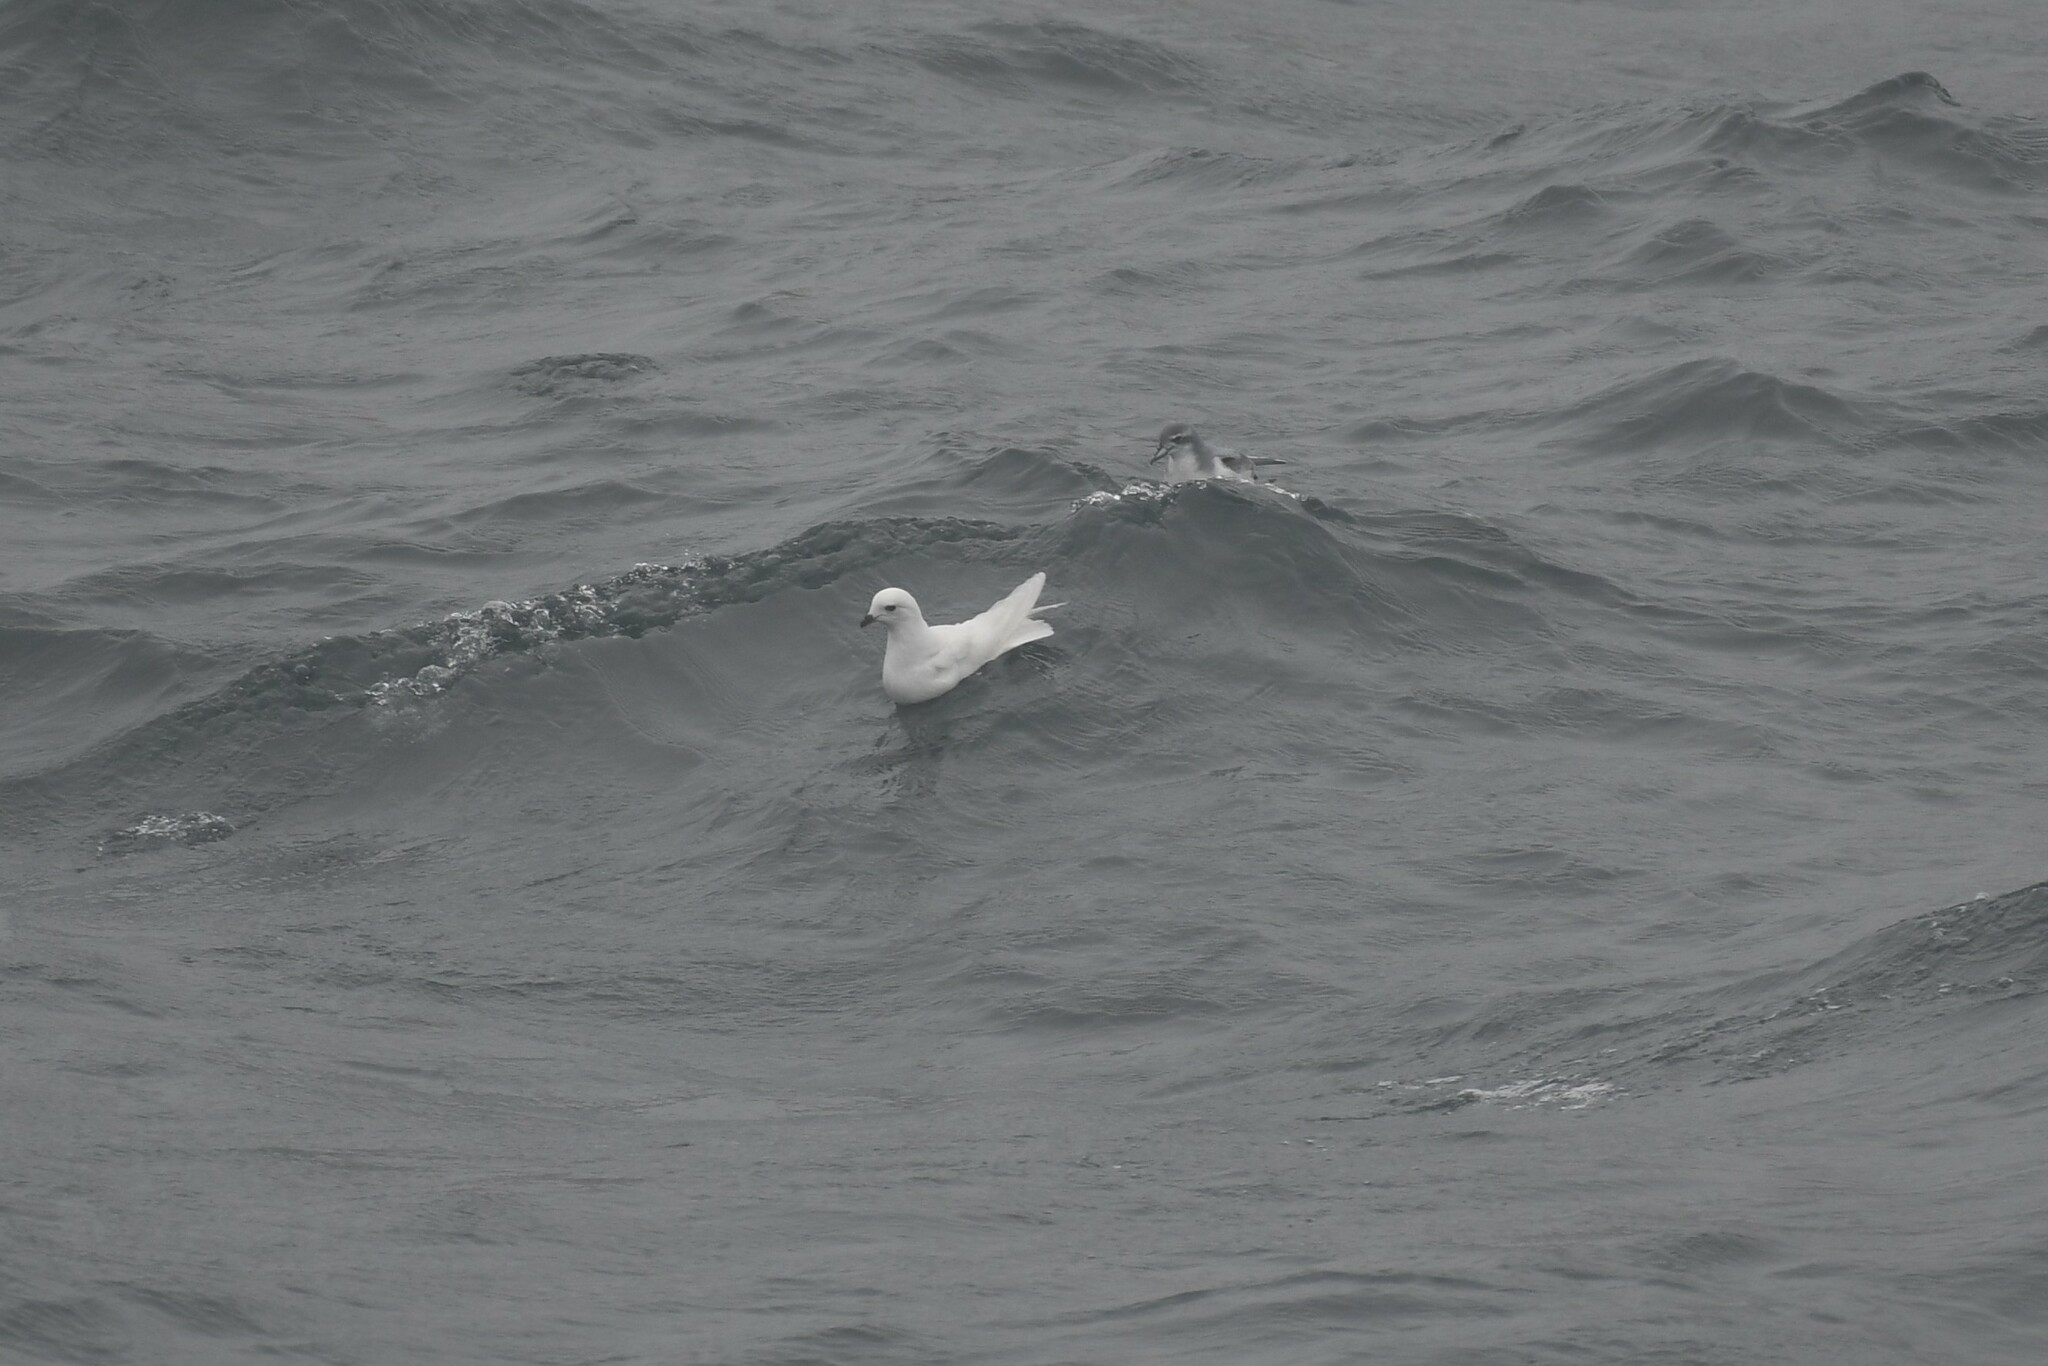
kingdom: Animalia
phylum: Chordata
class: Aves
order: Procellariiformes
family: Procellariidae
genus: Pagodroma
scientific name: Pagodroma nivea
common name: Snow petrel
